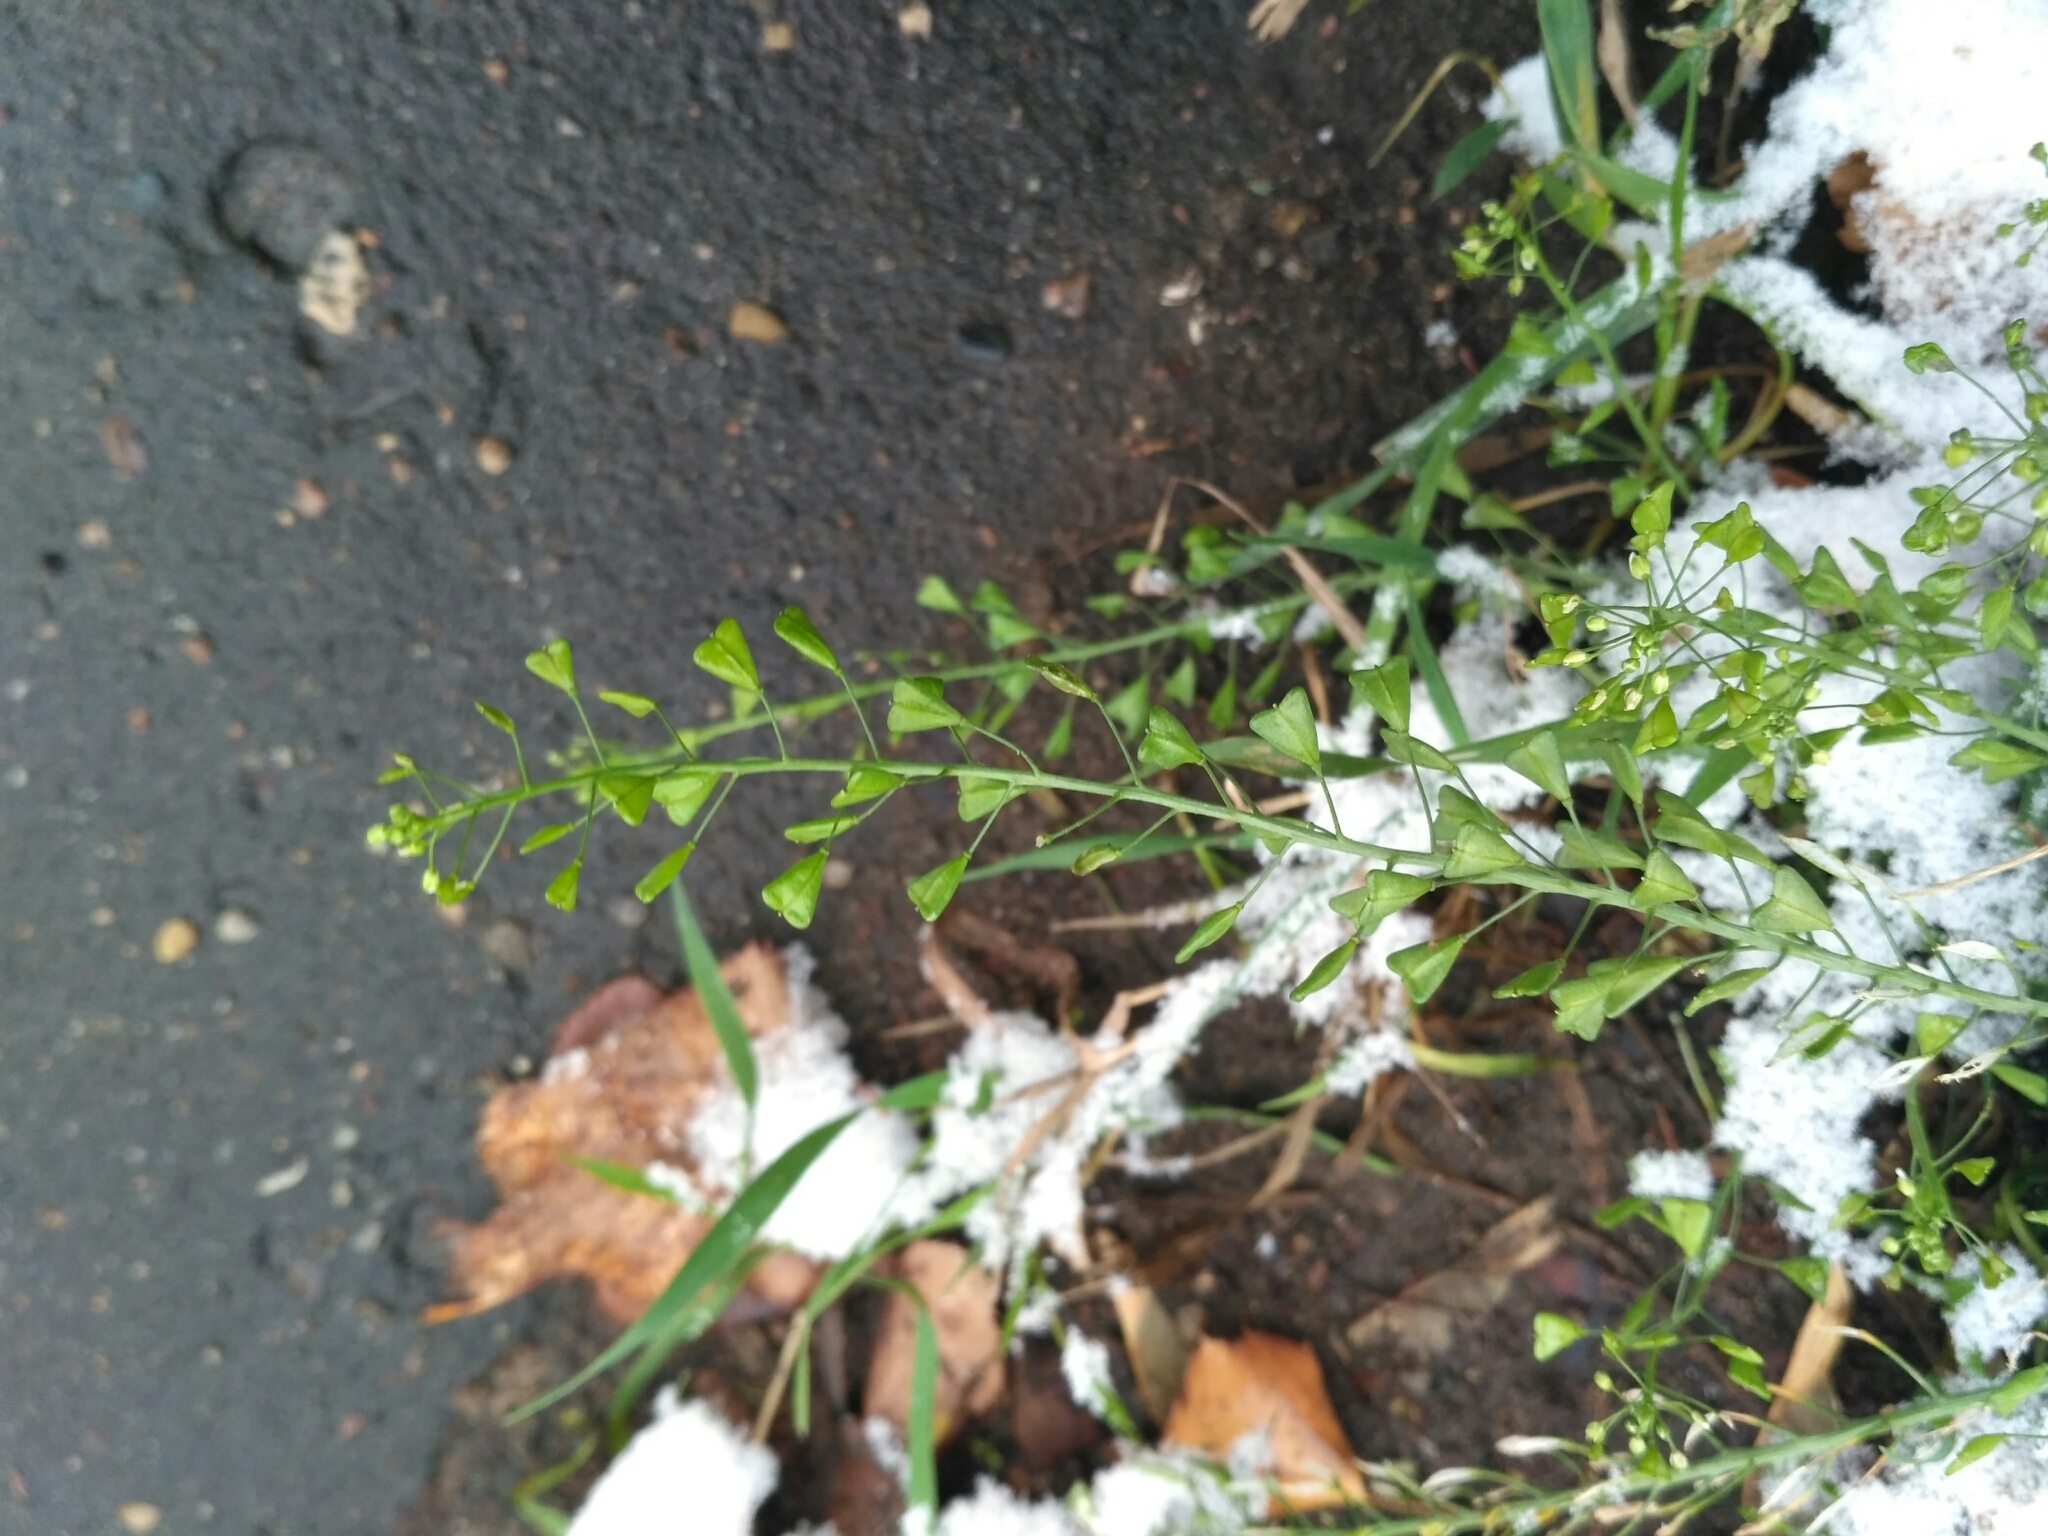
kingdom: Plantae
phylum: Tracheophyta
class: Magnoliopsida
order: Brassicales
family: Brassicaceae
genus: Capsella
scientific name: Capsella bursa-pastoris
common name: Shepherd's purse
